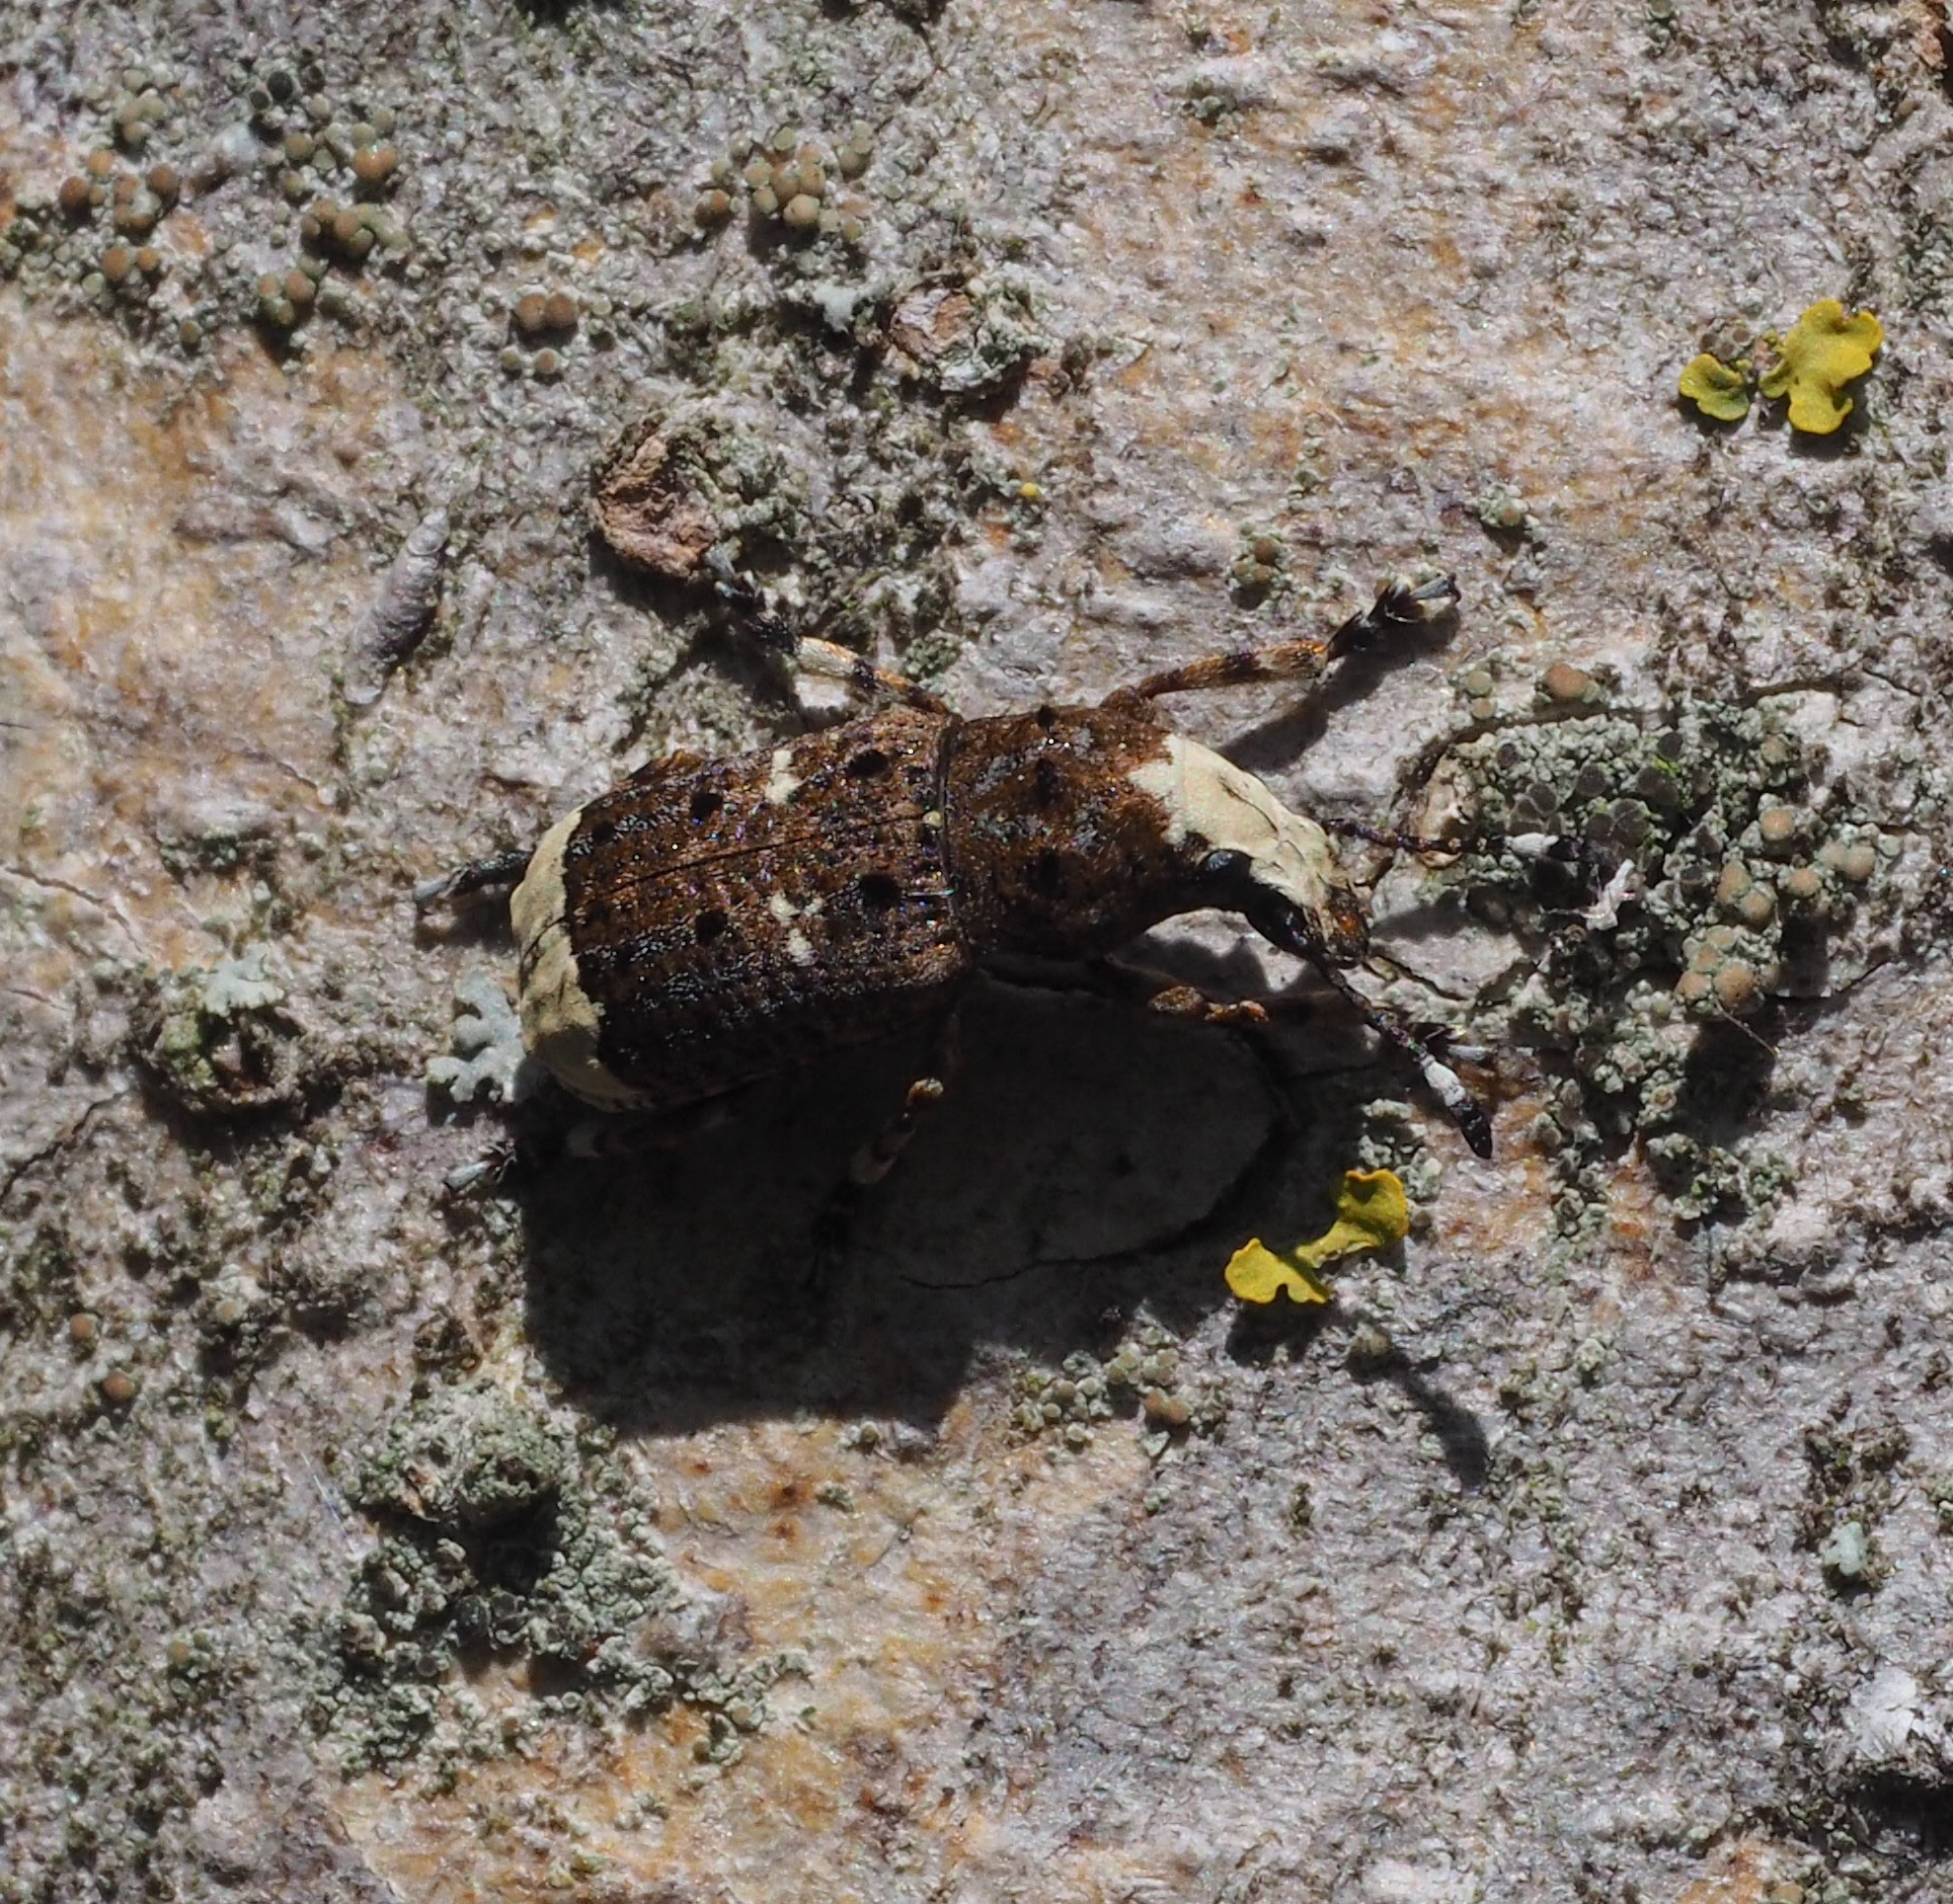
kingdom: Animalia
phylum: Arthropoda
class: Insecta
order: Coleoptera
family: Anthribidae
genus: Platystomos
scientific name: Platystomos albinus
